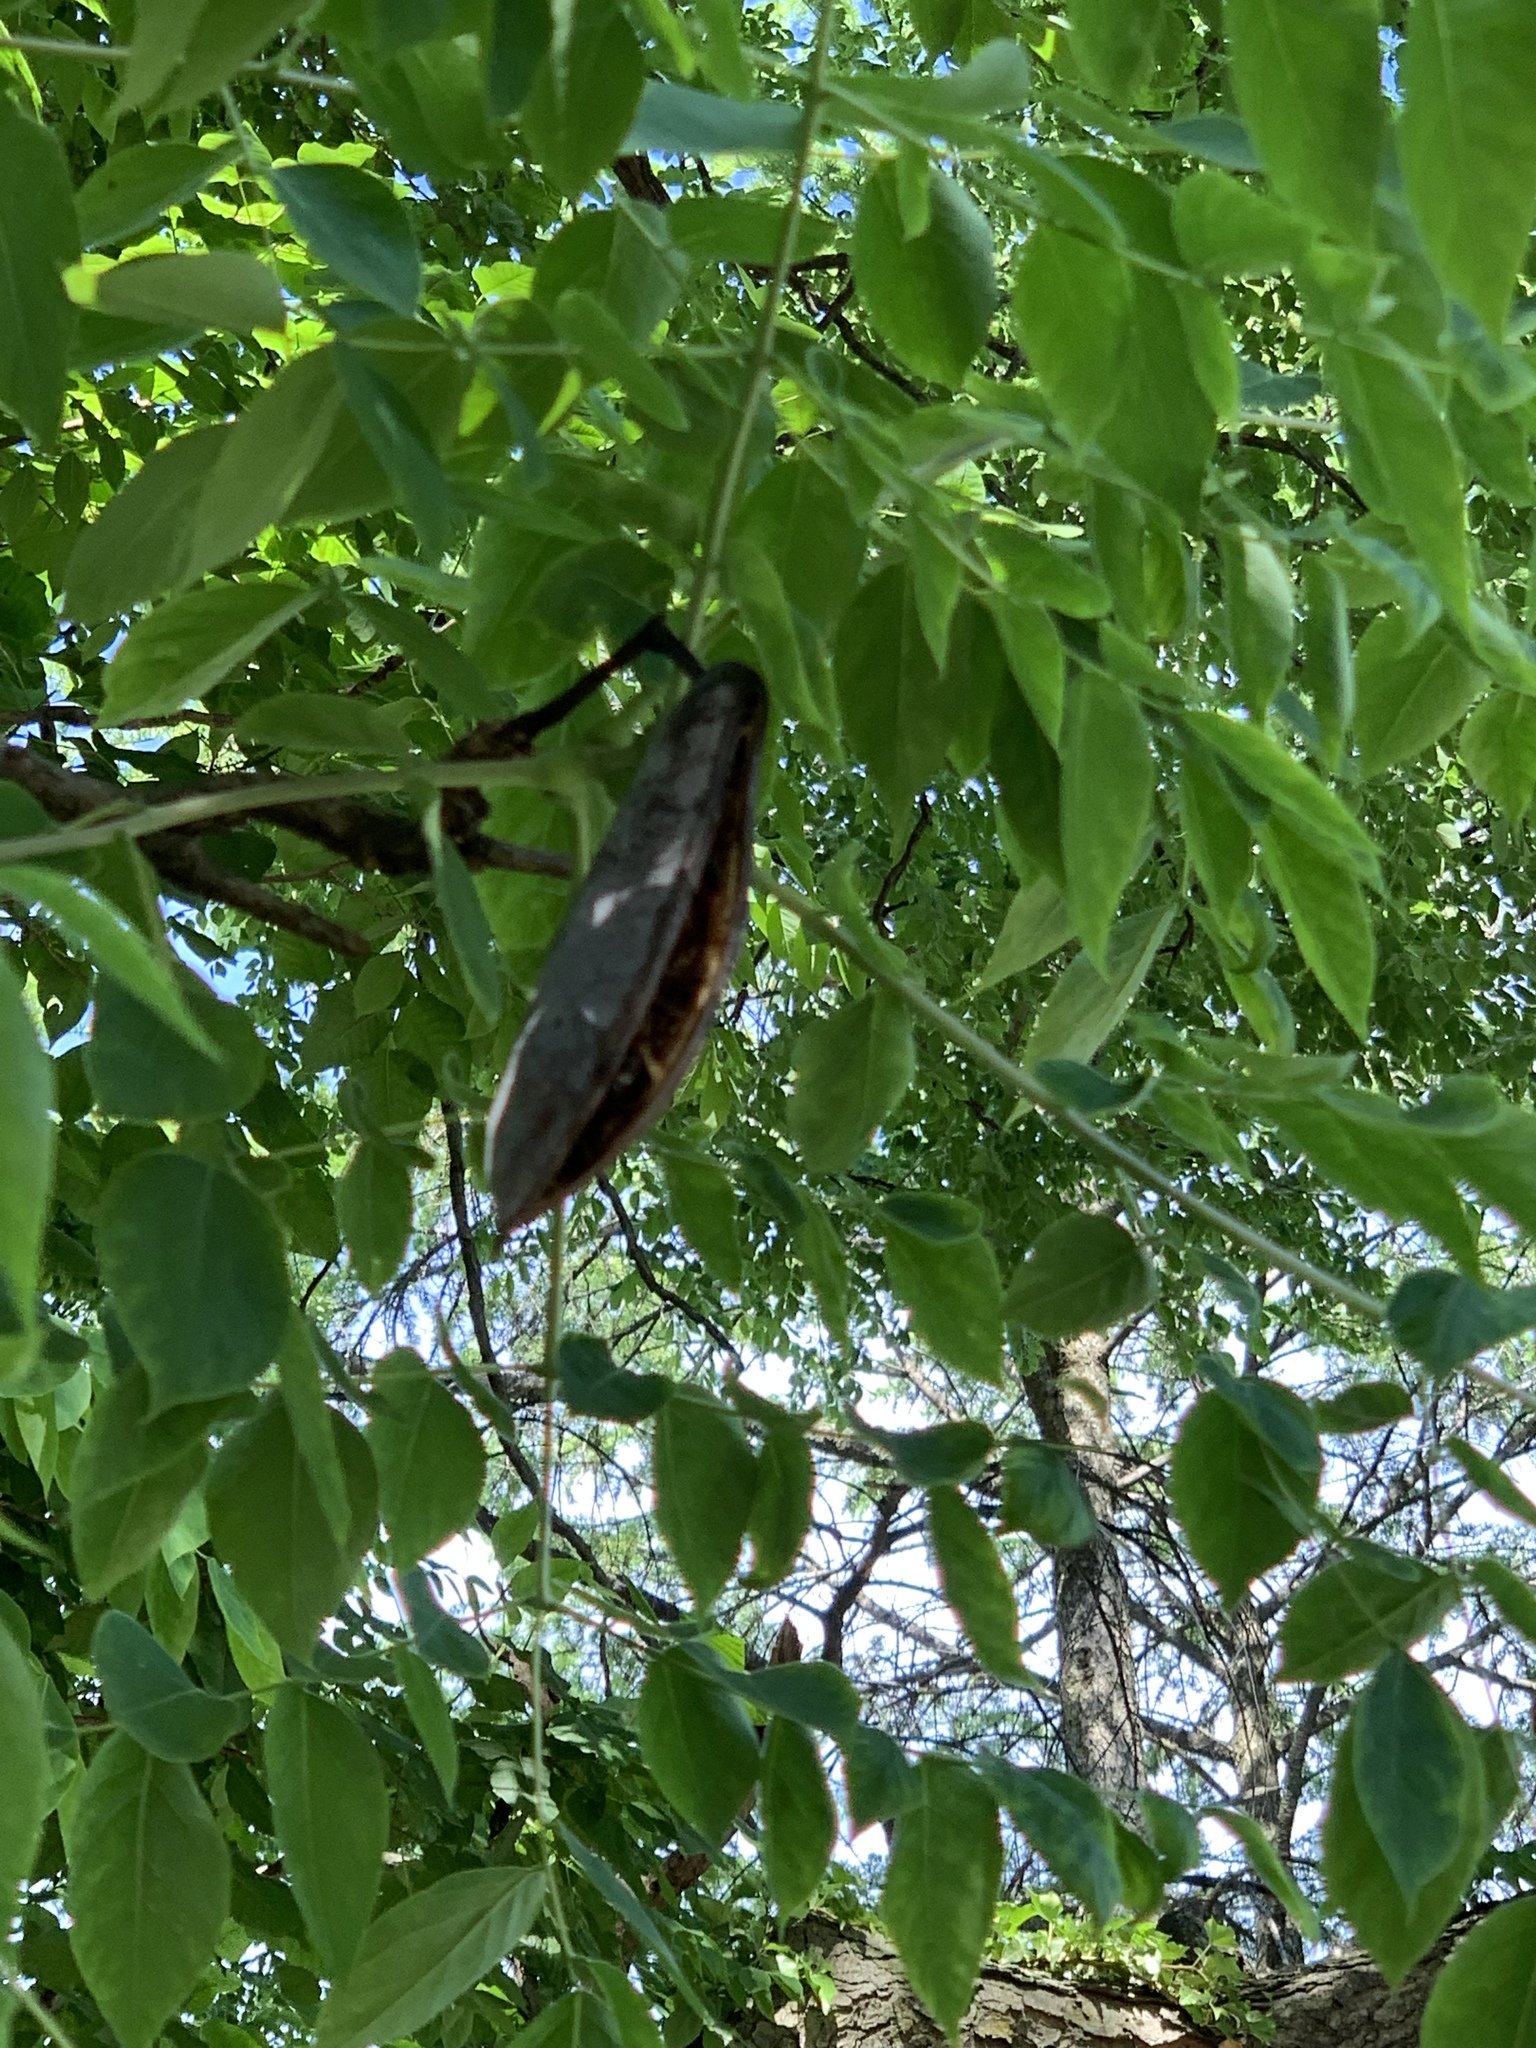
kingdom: Plantae
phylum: Tracheophyta
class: Magnoliopsida
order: Fabales
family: Fabaceae
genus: Gymnocladus
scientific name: Gymnocladus dioicus
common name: Kentucky coffee-tree
